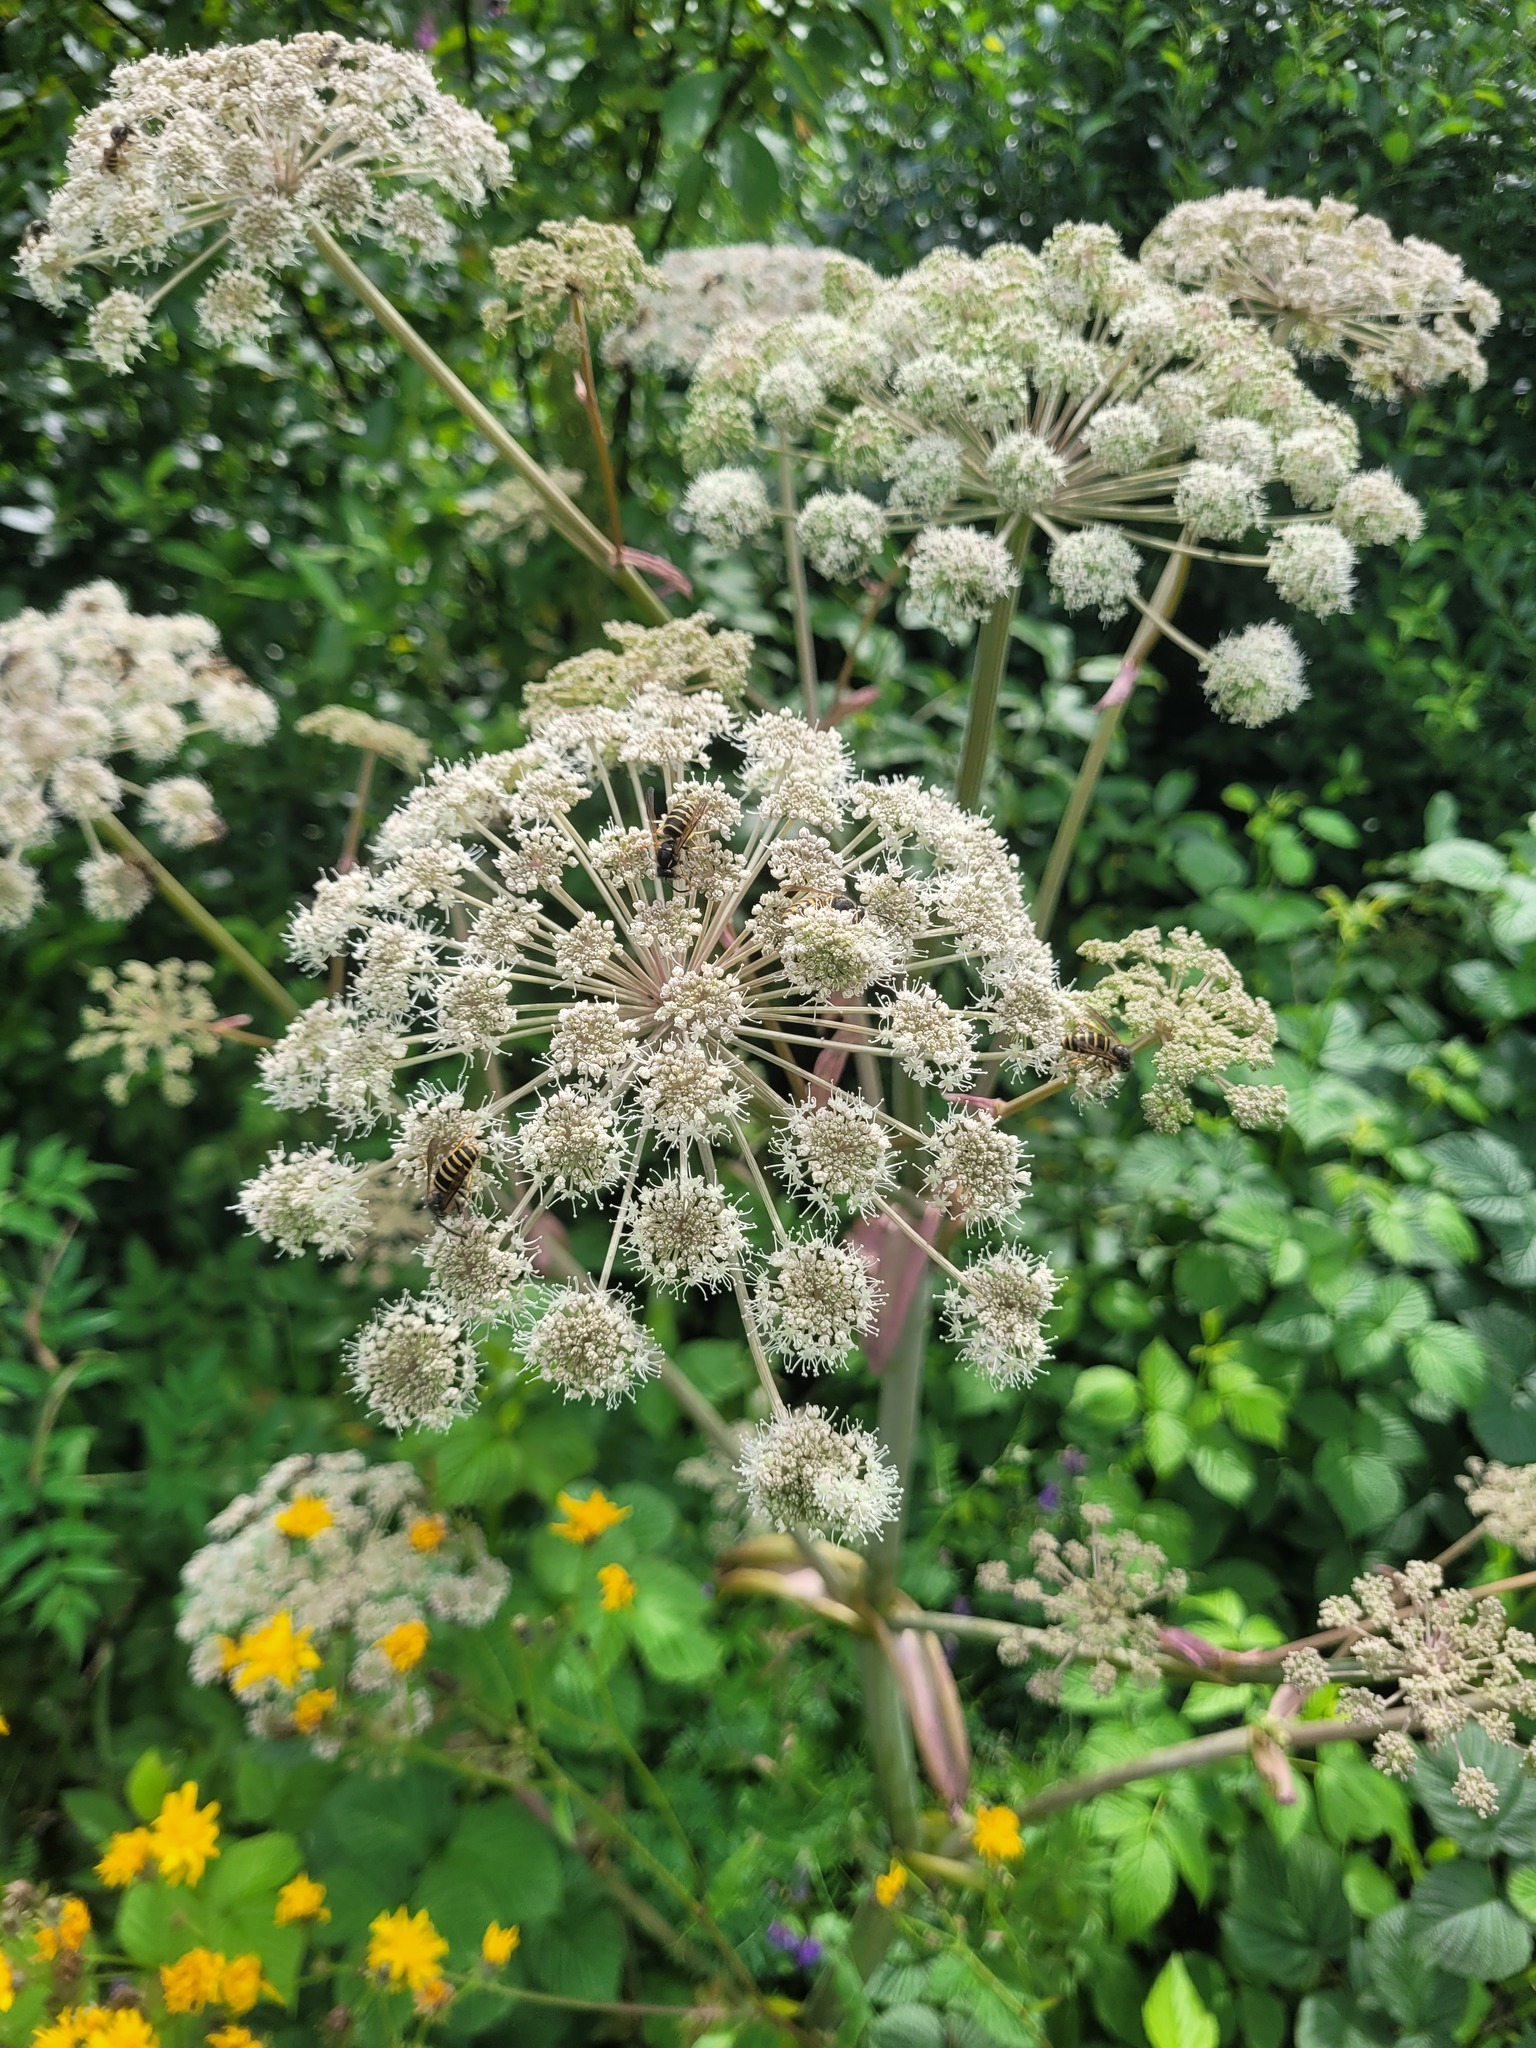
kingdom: Plantae
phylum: Tracheophyta
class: Magnoliopsida
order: Apiales
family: Apiaceae
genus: Angelica
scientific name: Angelica sylvestris
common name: Wild angelica
